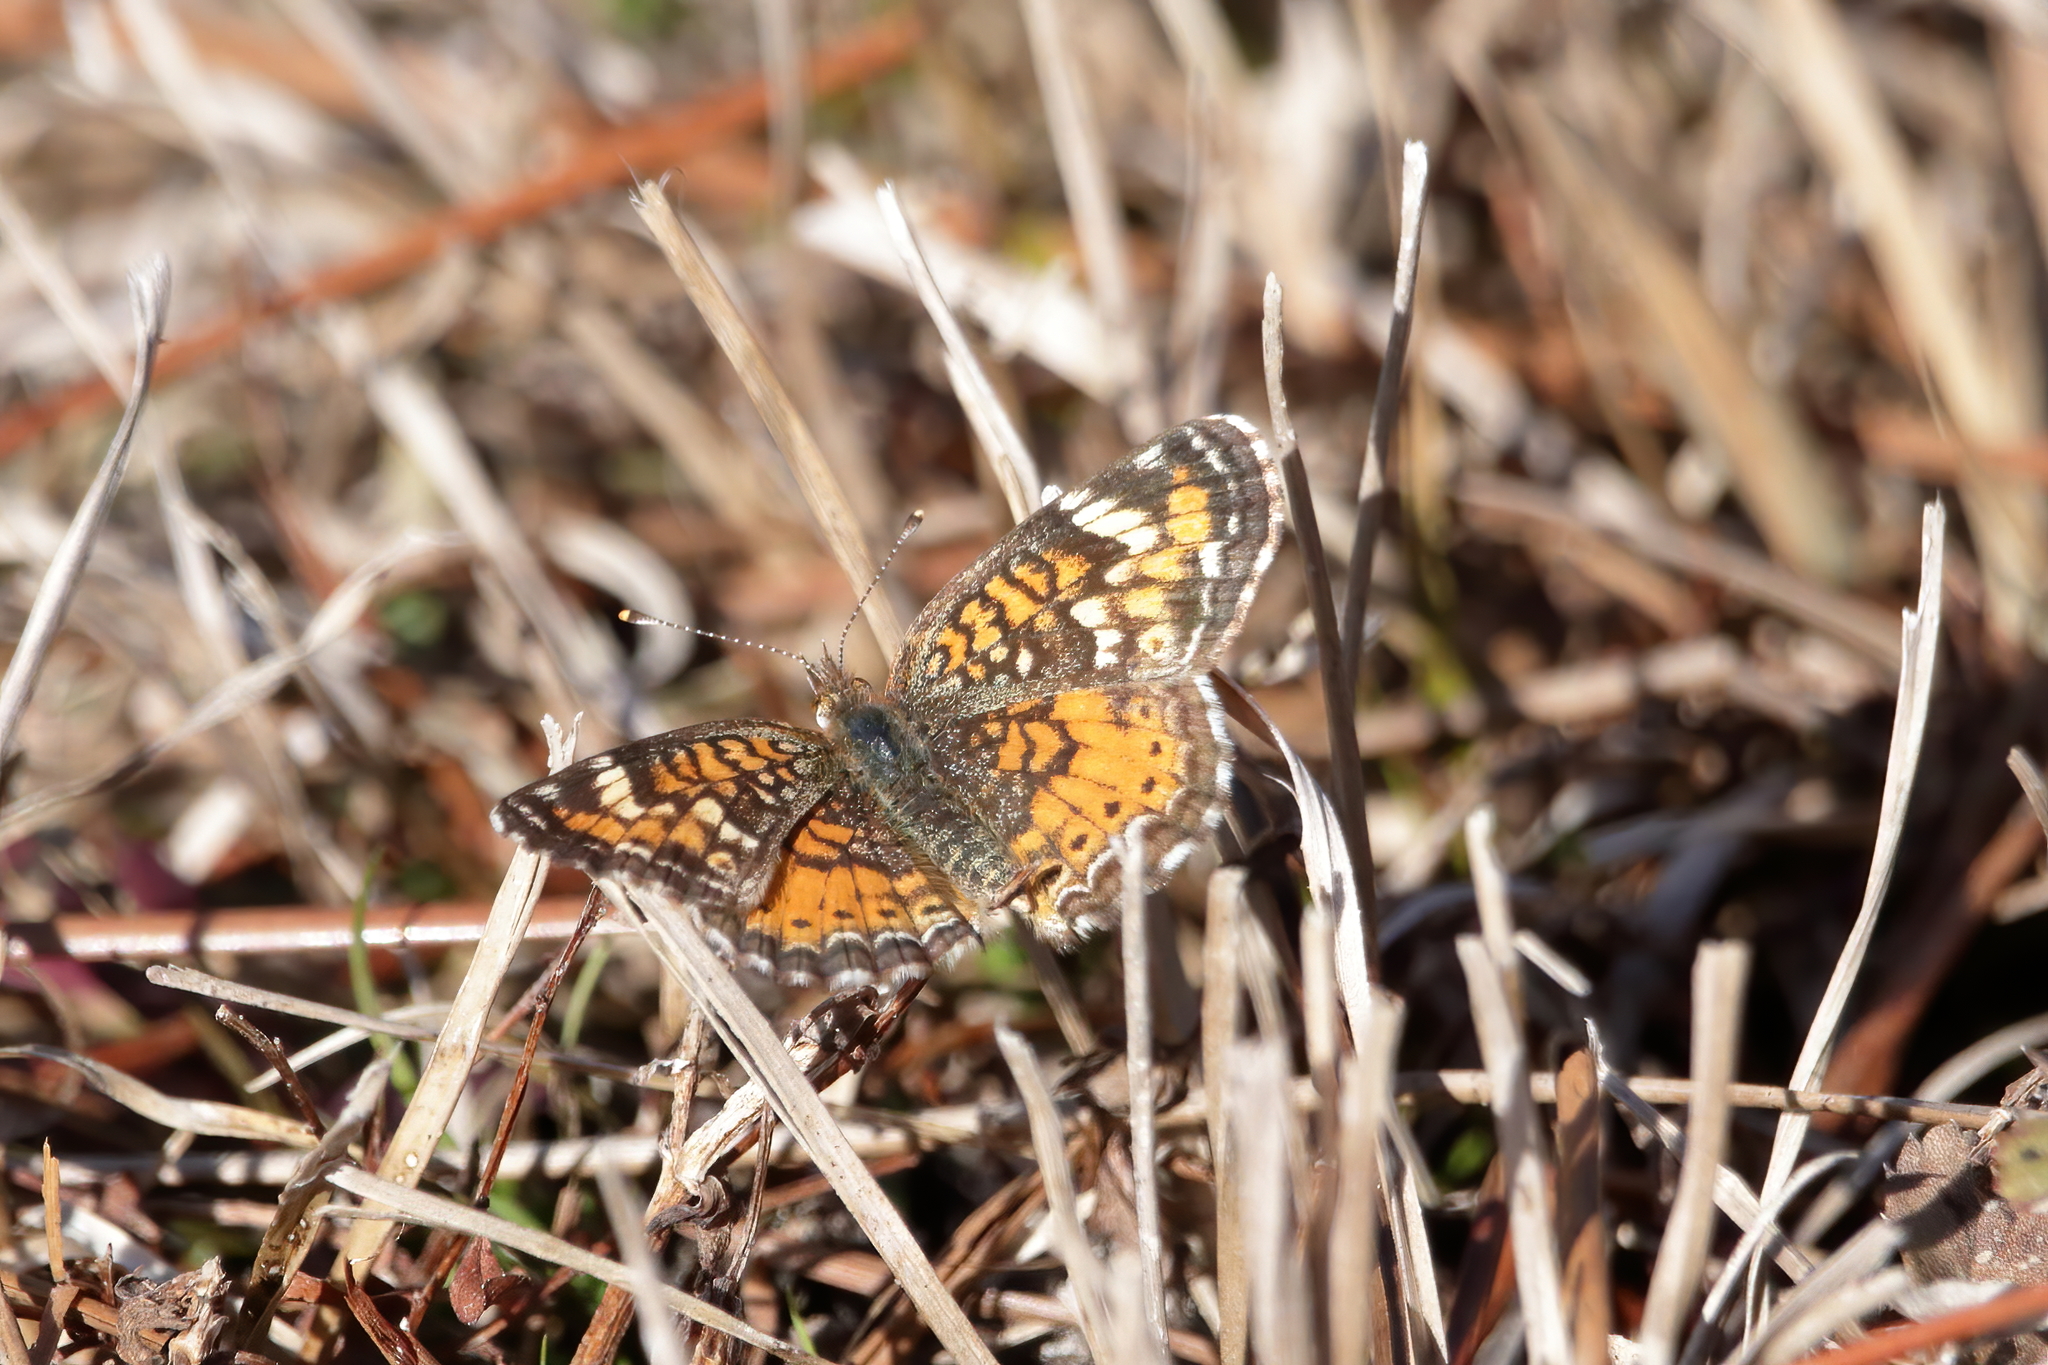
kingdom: Animalia
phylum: Arthropoda
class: Insecta
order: Lepidoptera
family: Nymphalidae
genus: Phyciodes
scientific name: Phyciodes phaon
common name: Phaon crescent
